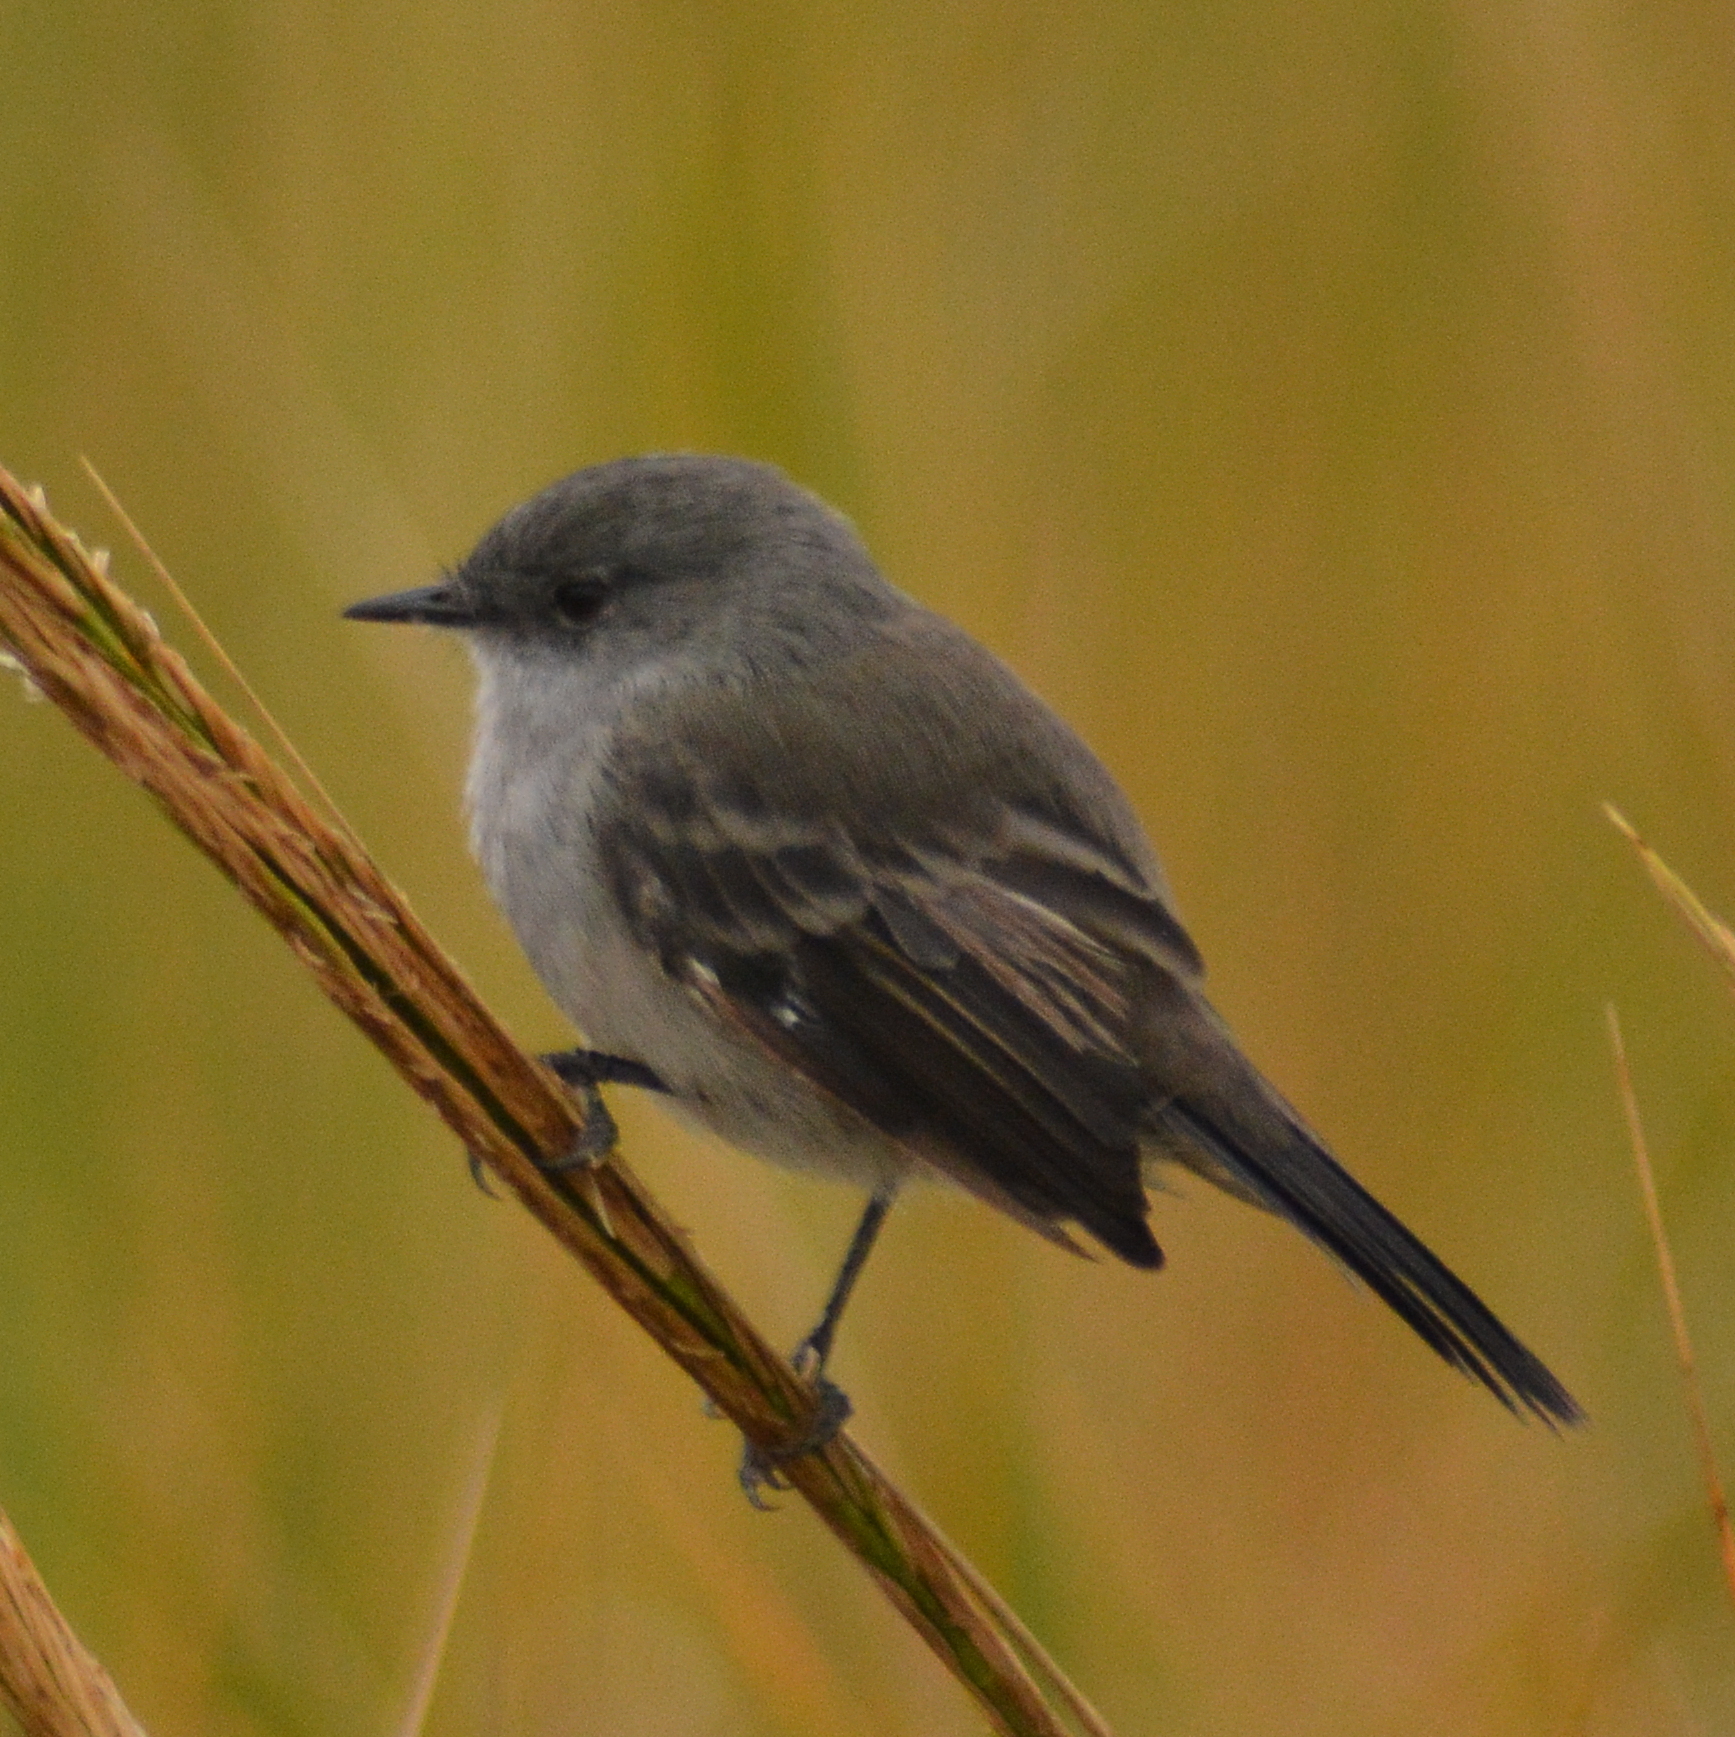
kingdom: Animalia
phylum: Chordata
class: Aves
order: Passeriformes
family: Tyrannidae
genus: Serpophaga
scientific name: Serpophaga nigricans
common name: Sooty tyrannulet
